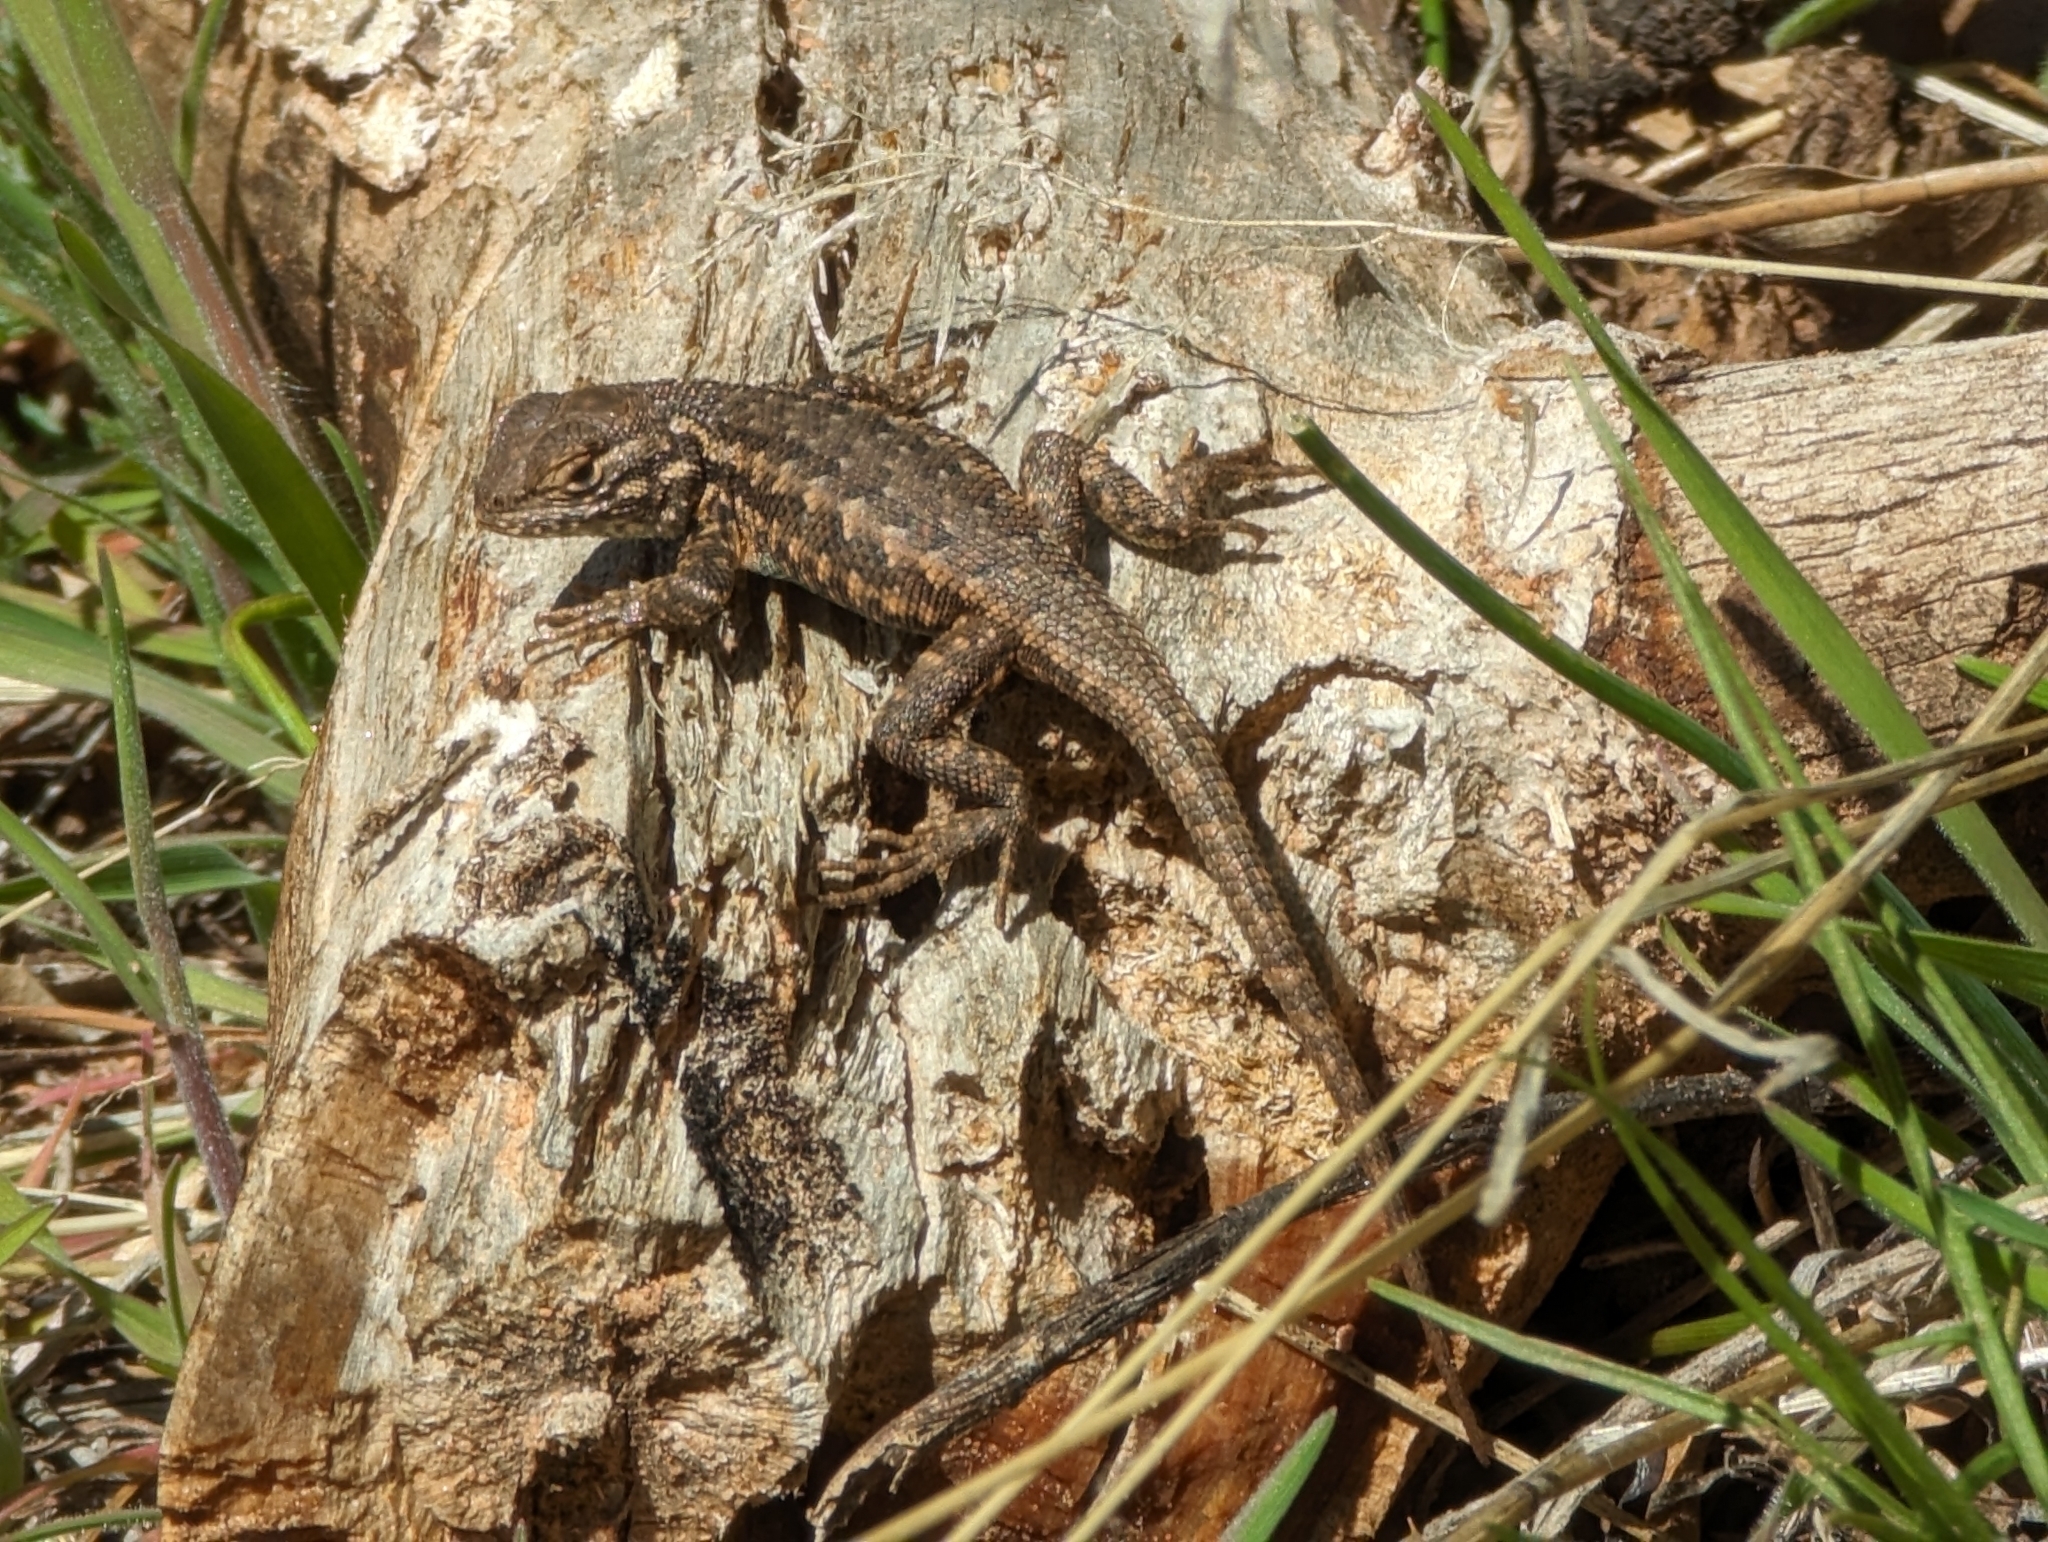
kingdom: Animalia
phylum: Chordata
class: Squamata
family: Phrynosomatidae
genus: Sceloporus
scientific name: Sceloporus graciosus
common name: Sagebrush lizard
